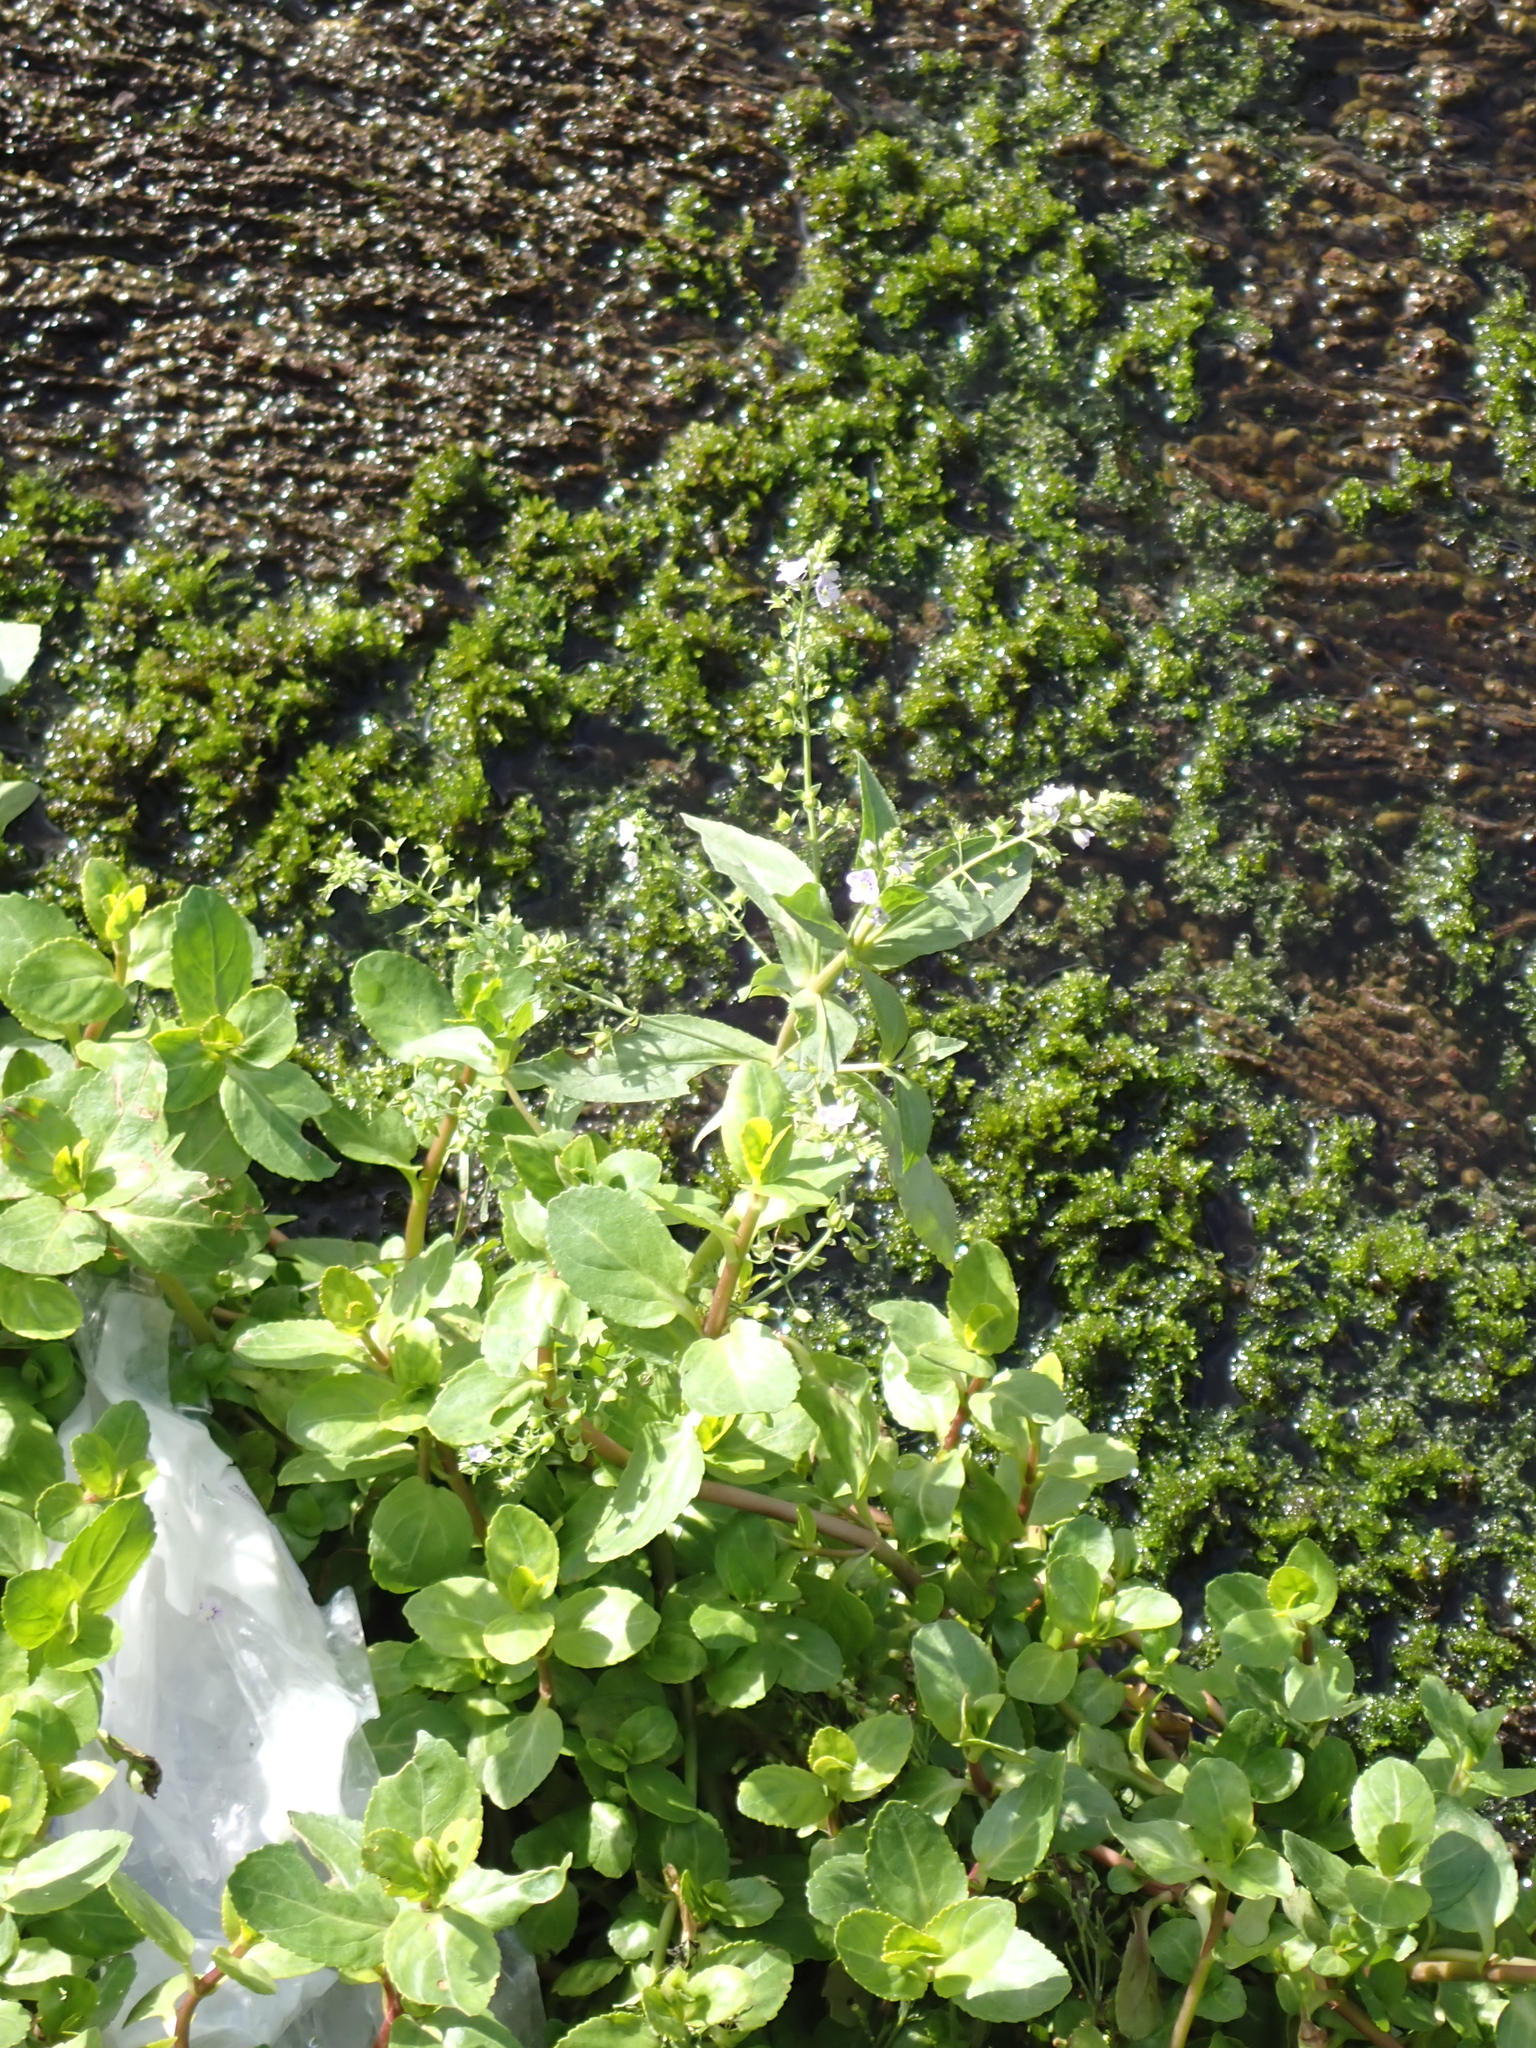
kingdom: Plantae
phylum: Tracheophyta
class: Magnoliopsida
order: Lamiales
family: Plantaginaceae
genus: Veronica
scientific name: Veronica anagallis-aquatica
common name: Water speedwell
